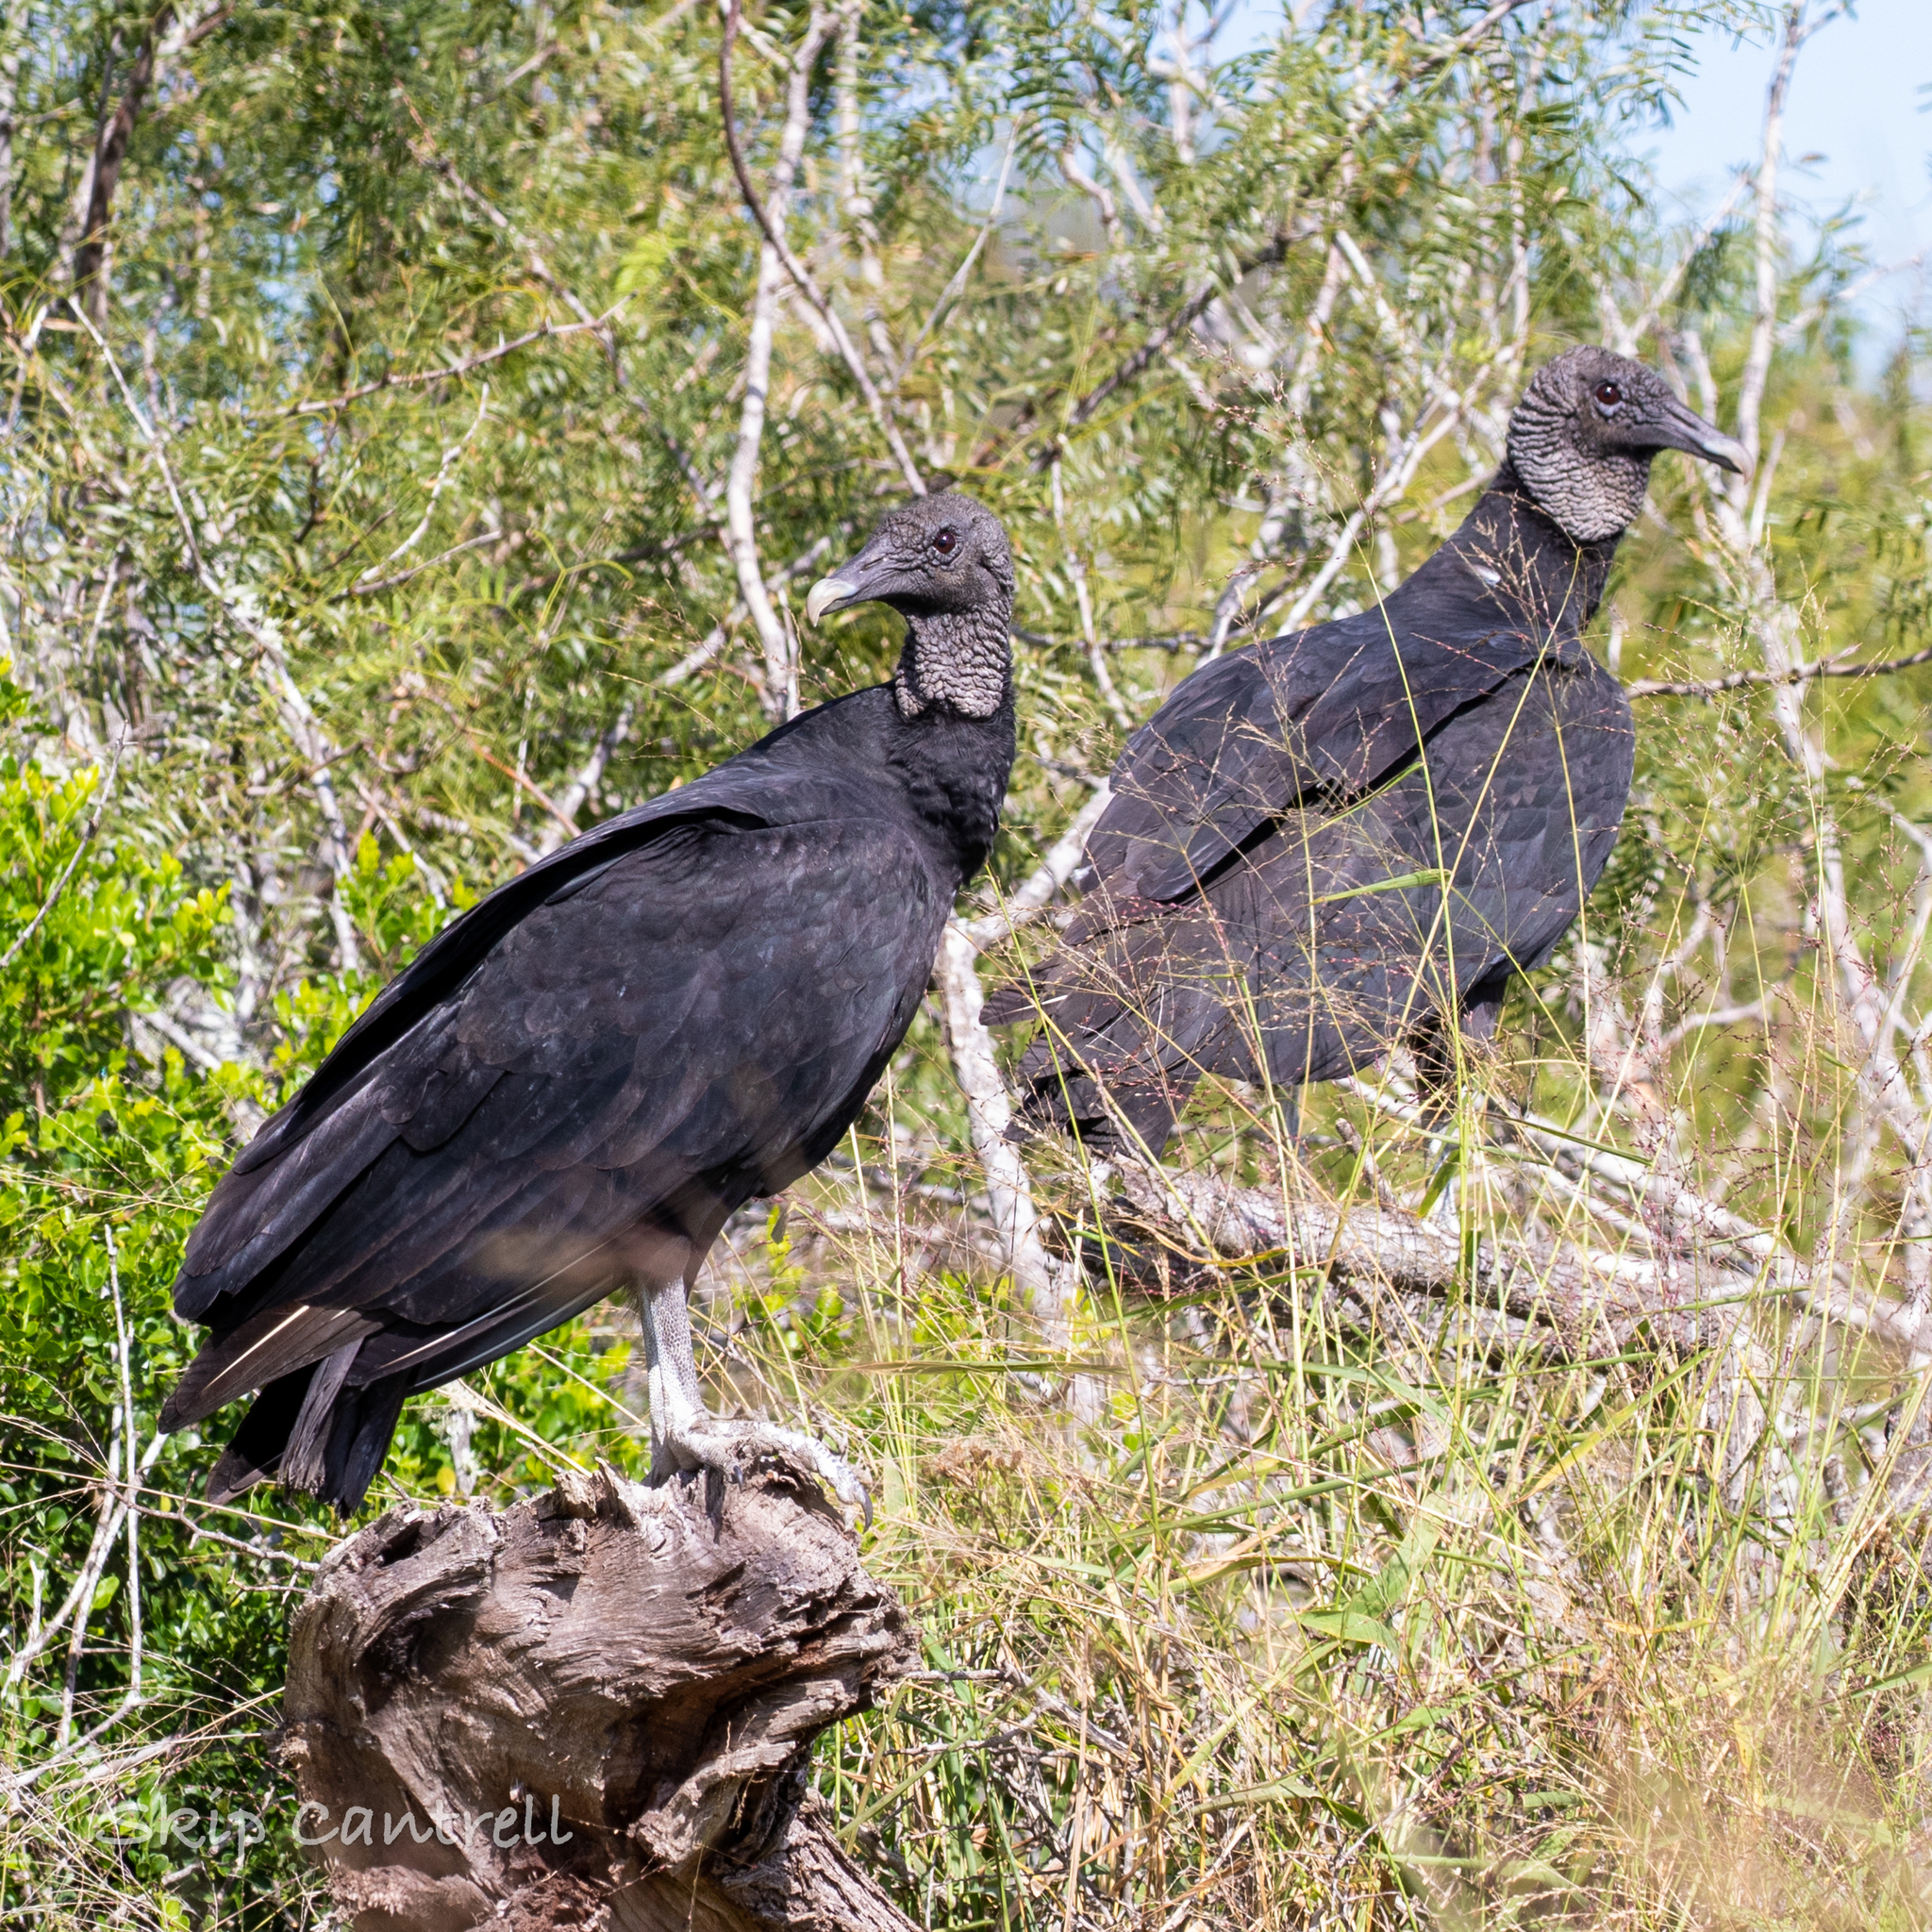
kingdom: Animalia
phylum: Chordata
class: Aves
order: Accipitriformes
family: Cathartidae
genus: Coragyps
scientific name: Coragyps atratus
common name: Black vulture
